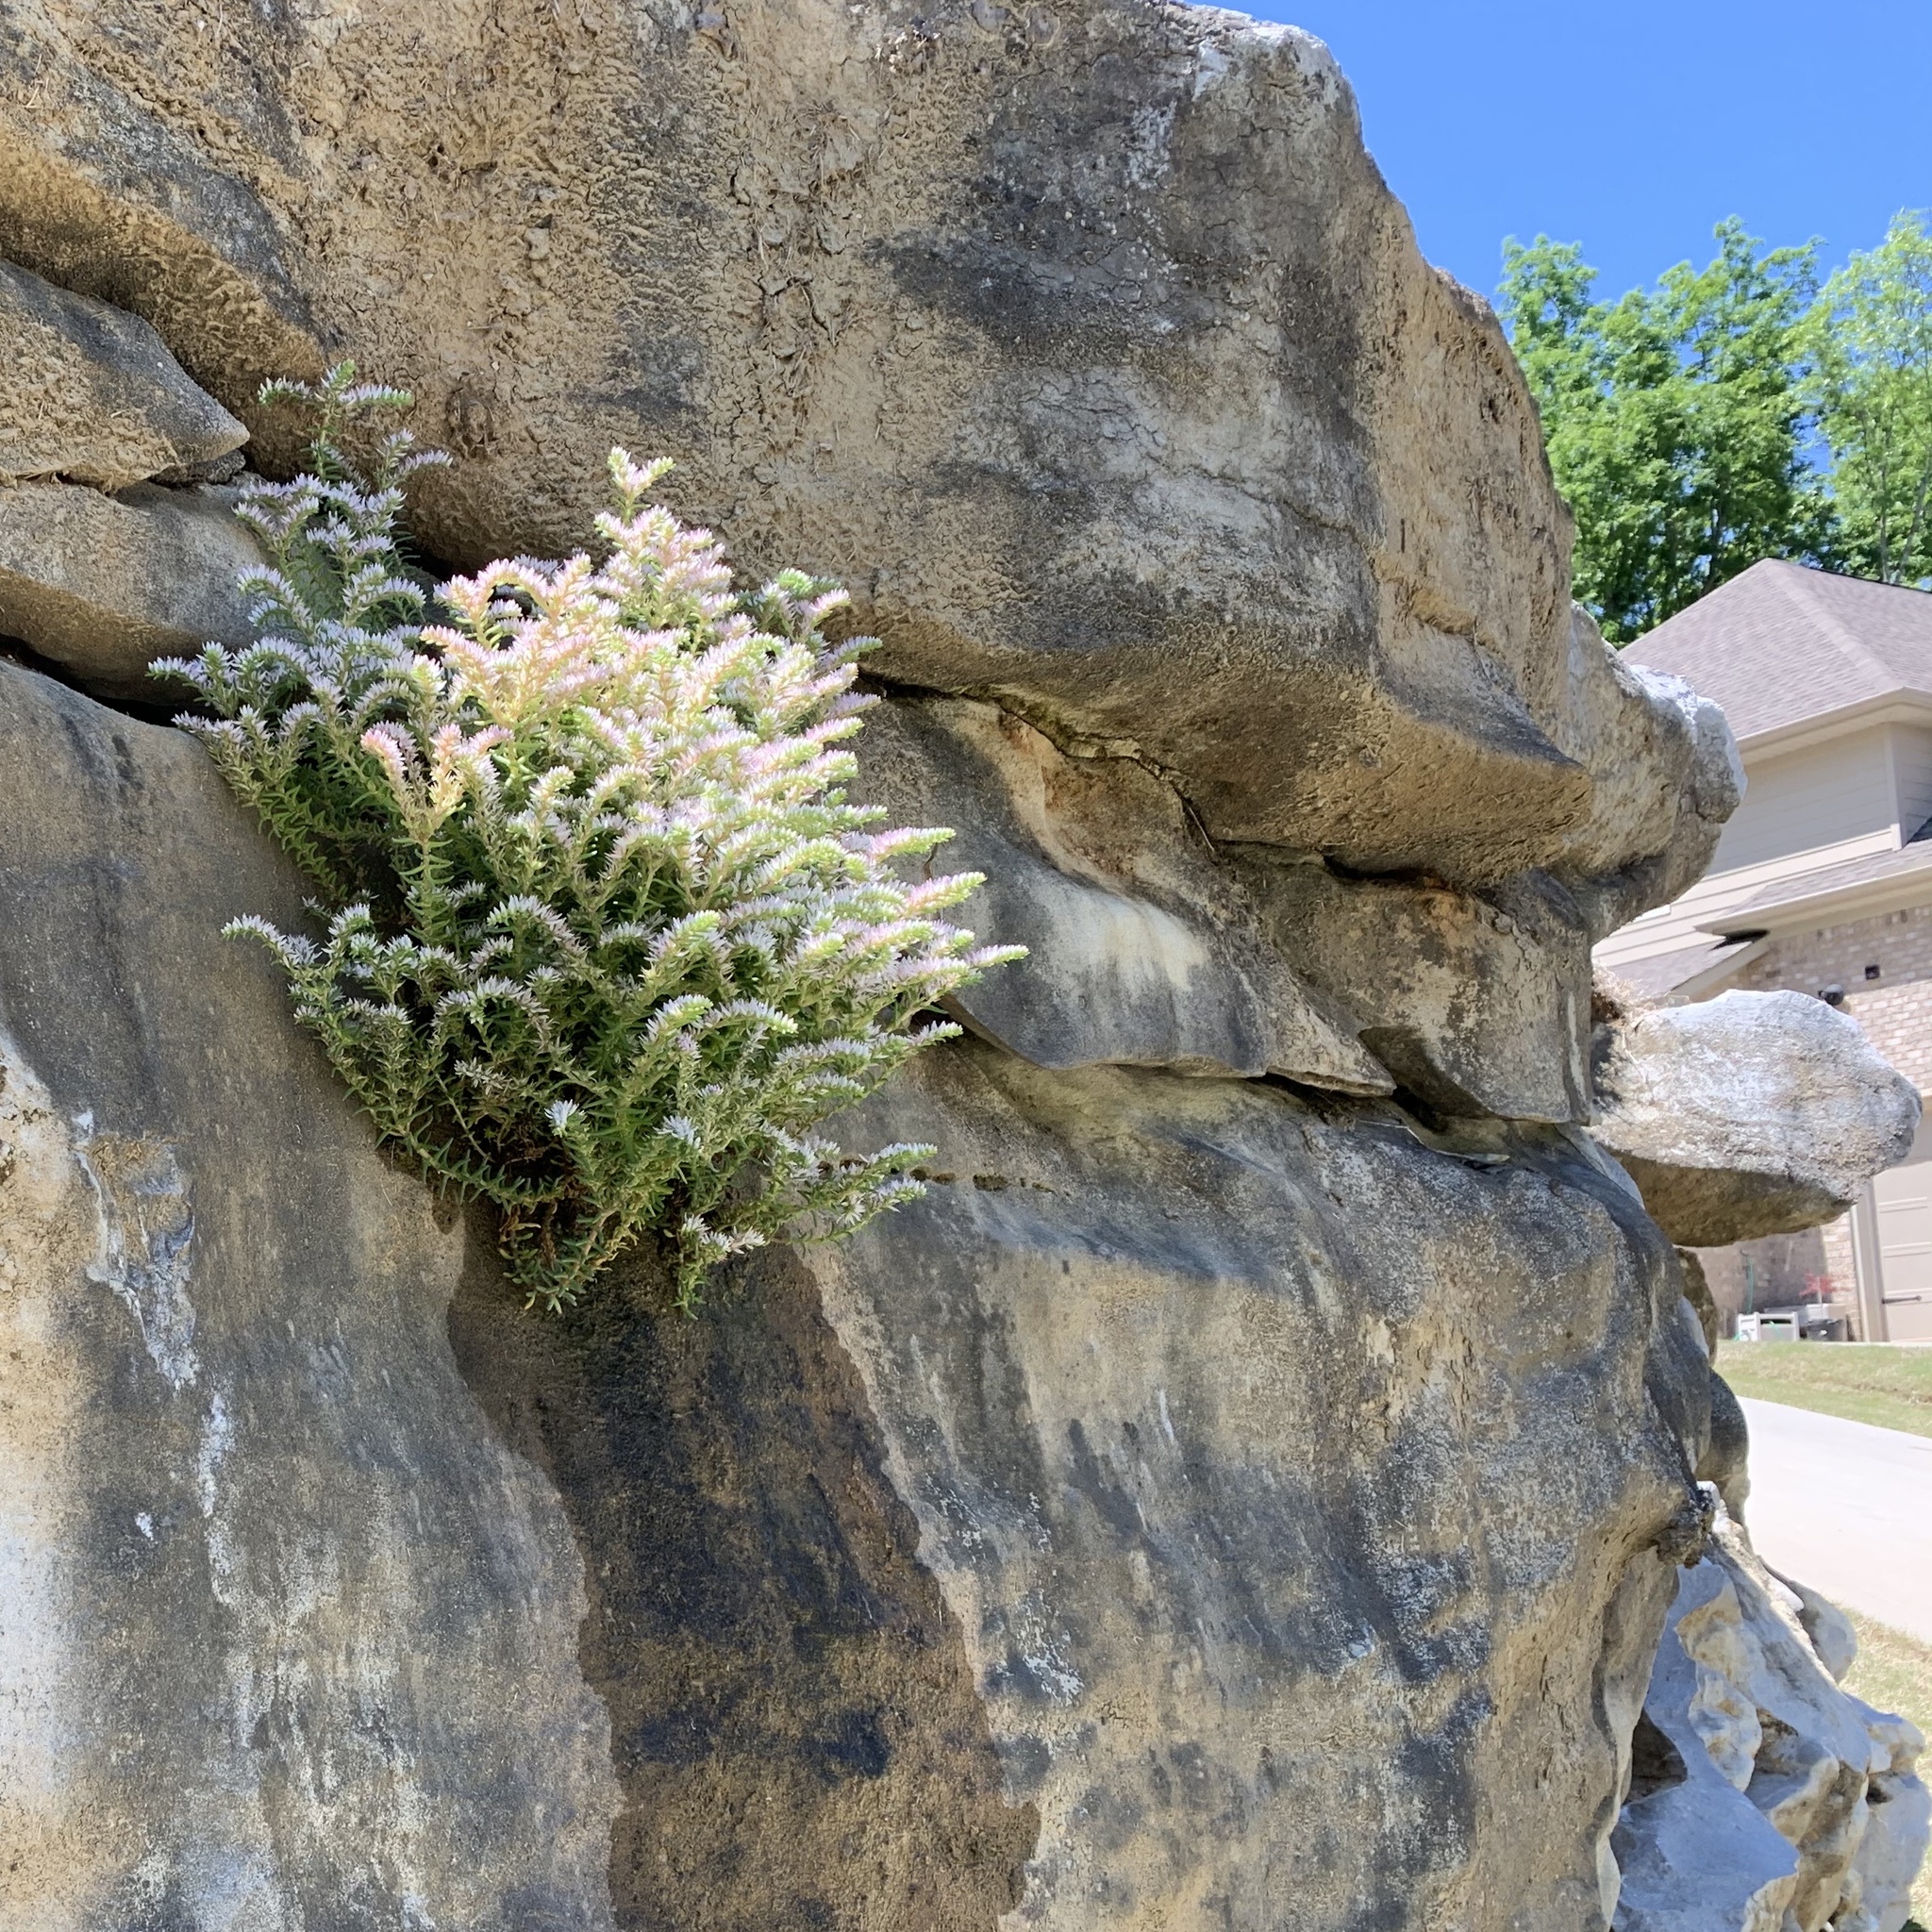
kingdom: Plantae
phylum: Tracheophyta
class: Magnoliopsida
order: Saxifragales
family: Crassulaceae
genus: Sedum
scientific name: Sedum pulchellum
